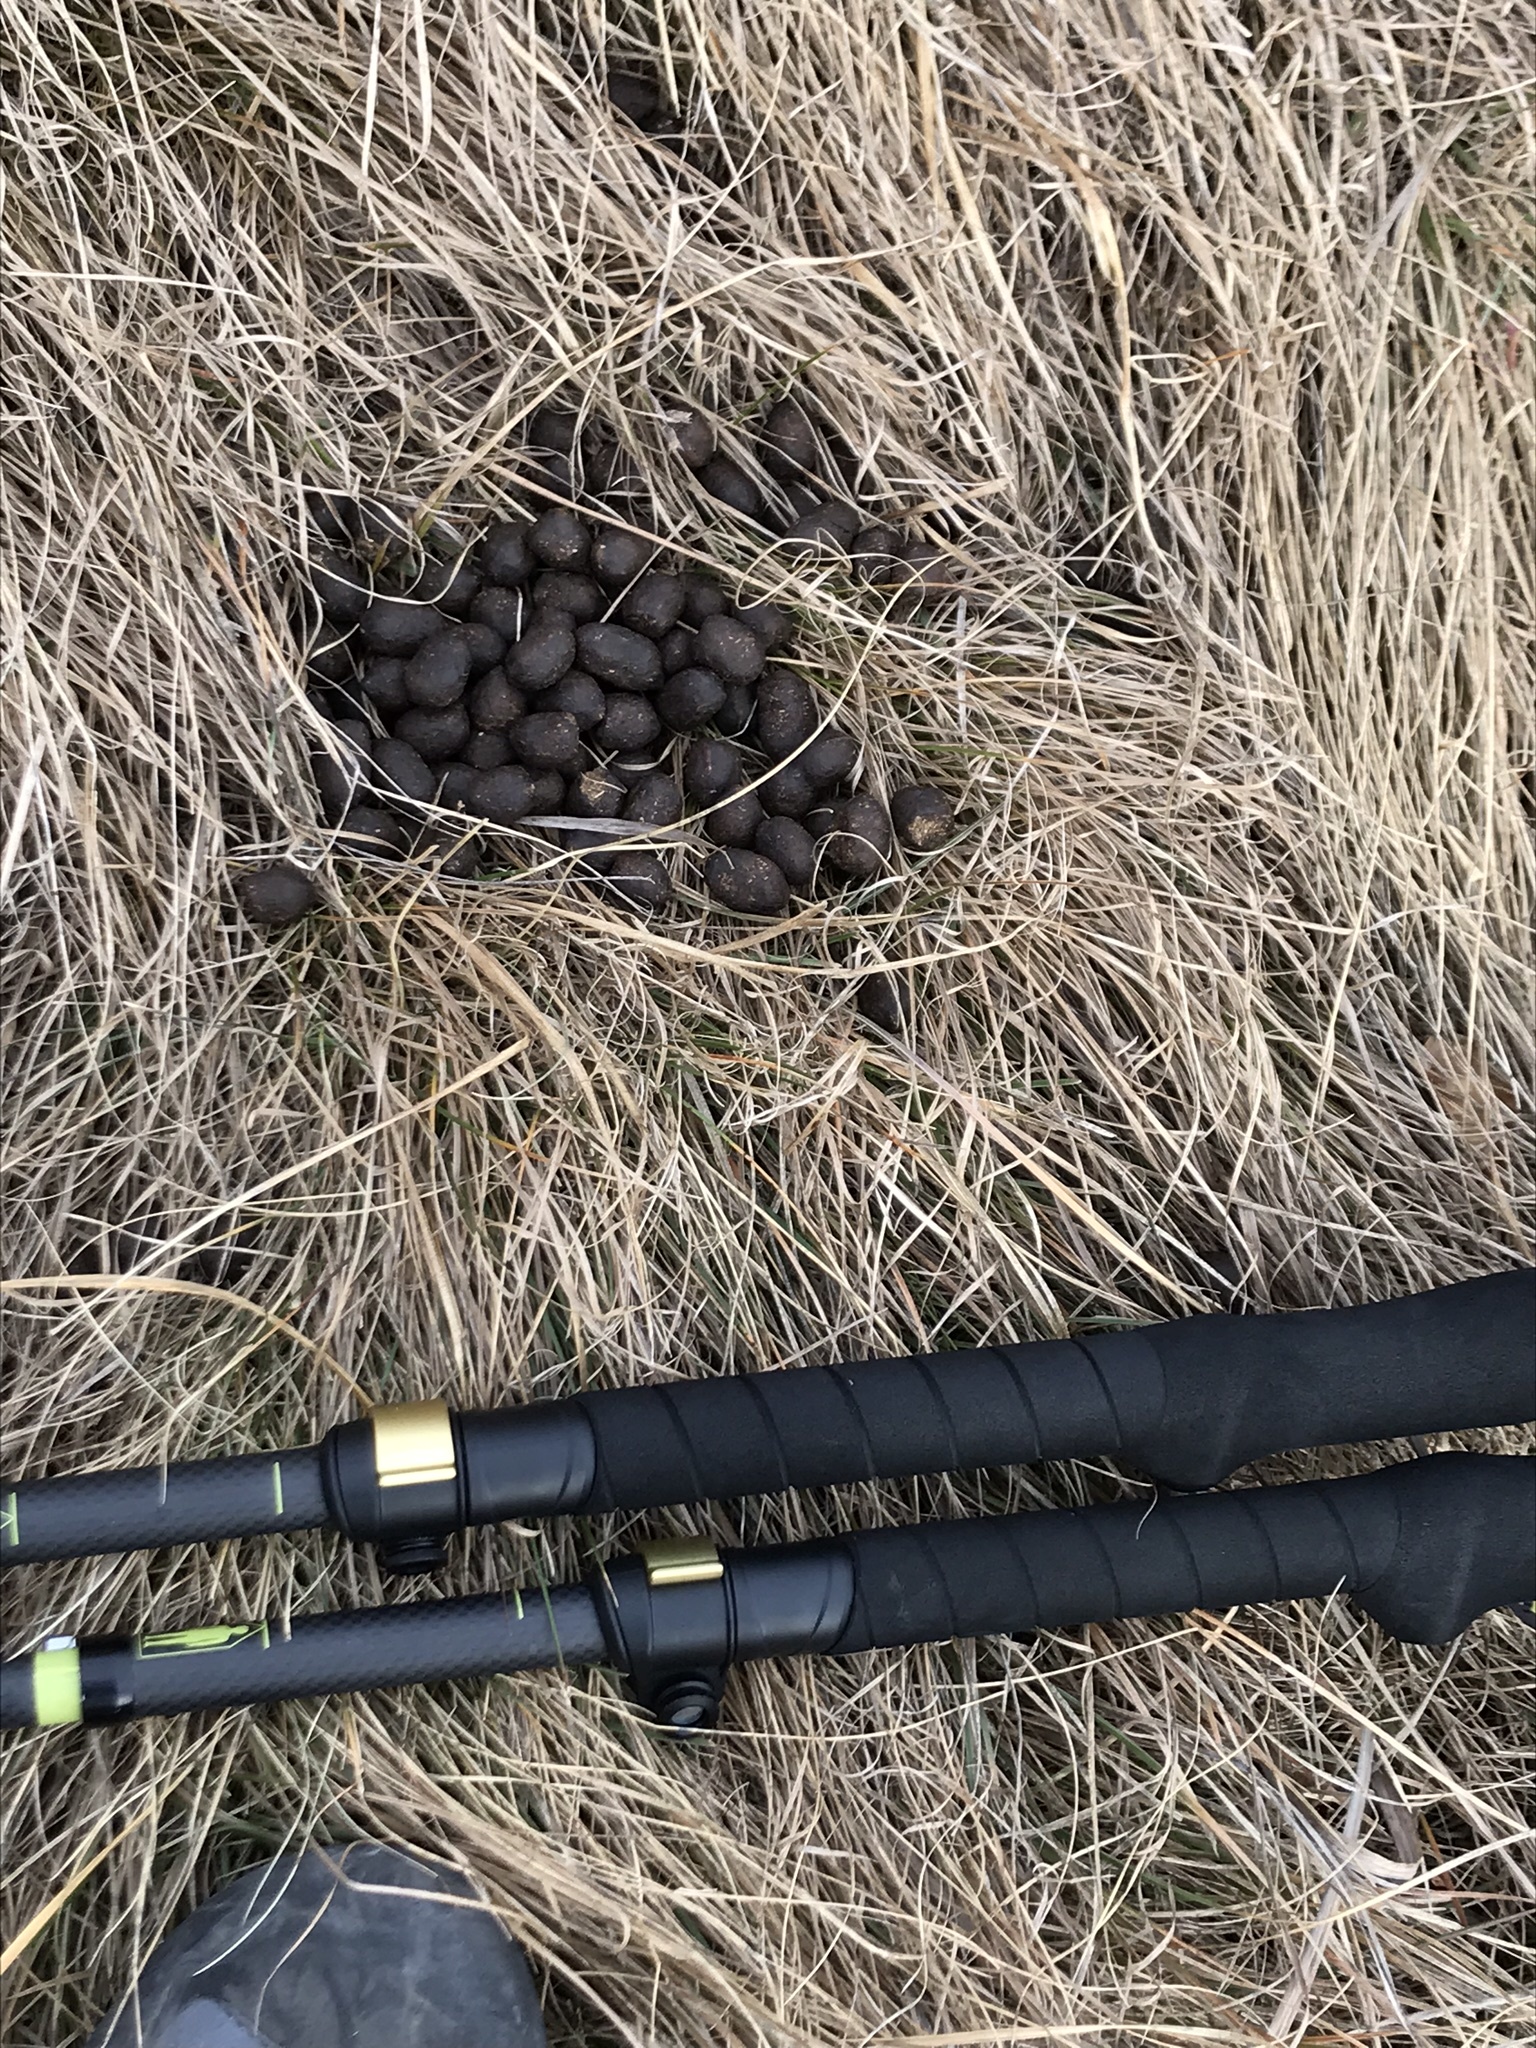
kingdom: Animalia
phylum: Chordata
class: Mammalia
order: Artiodactyla
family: Bovidae
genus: Rupicapra
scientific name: Rupicapra rupicapra
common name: Chamois
